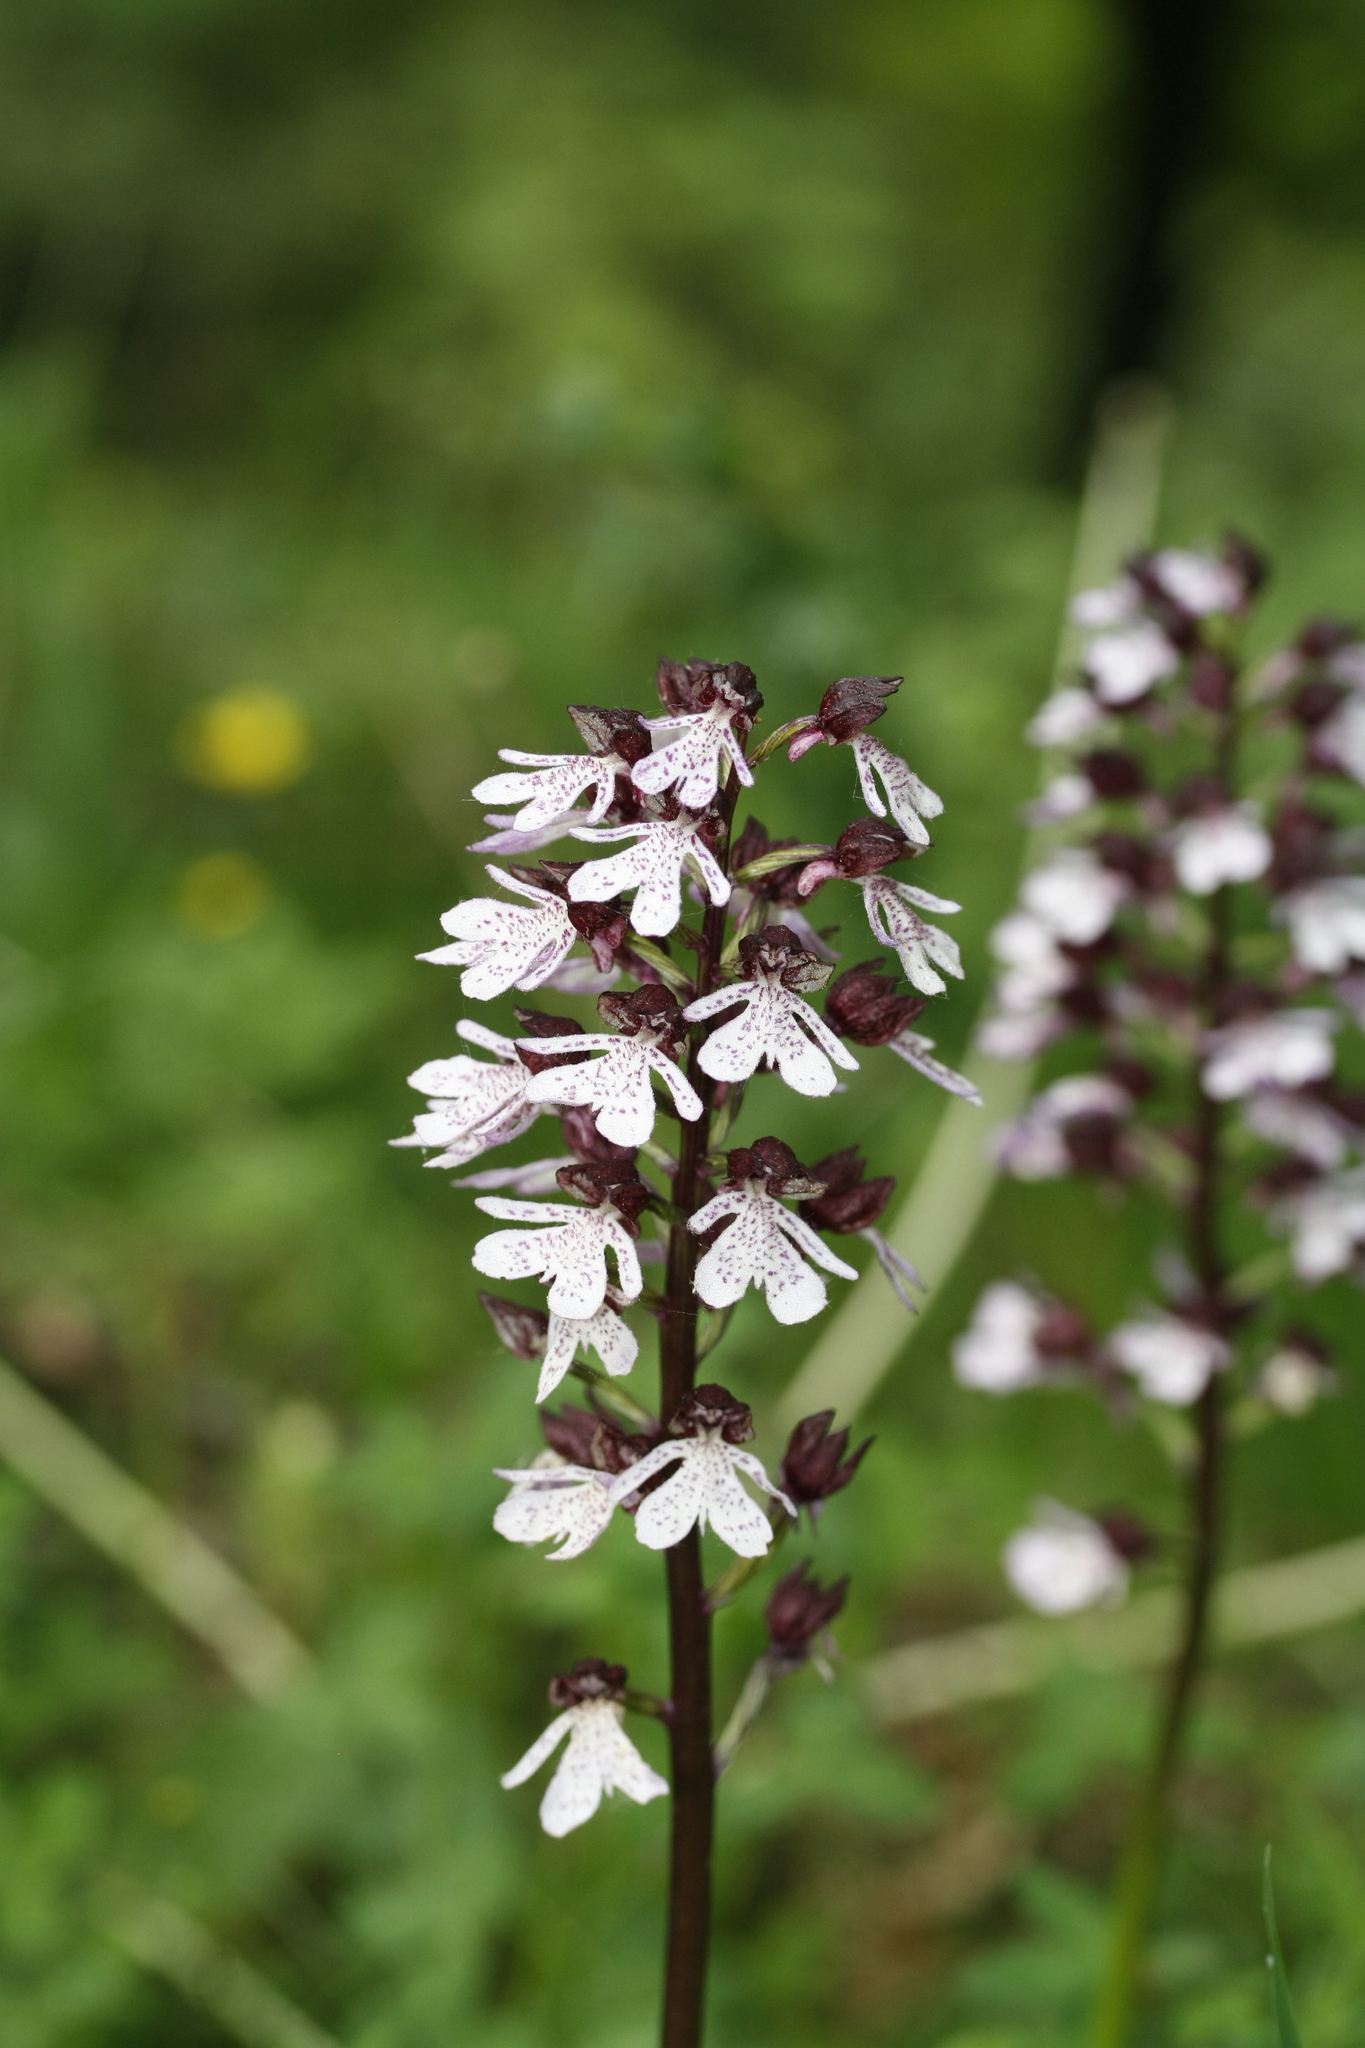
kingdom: Plantae
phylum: Tracheophyta
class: Liliopsida
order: Asparagales
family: Orchidaceae
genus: Orchis
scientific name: Orchis purpurea
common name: Lady orchid
